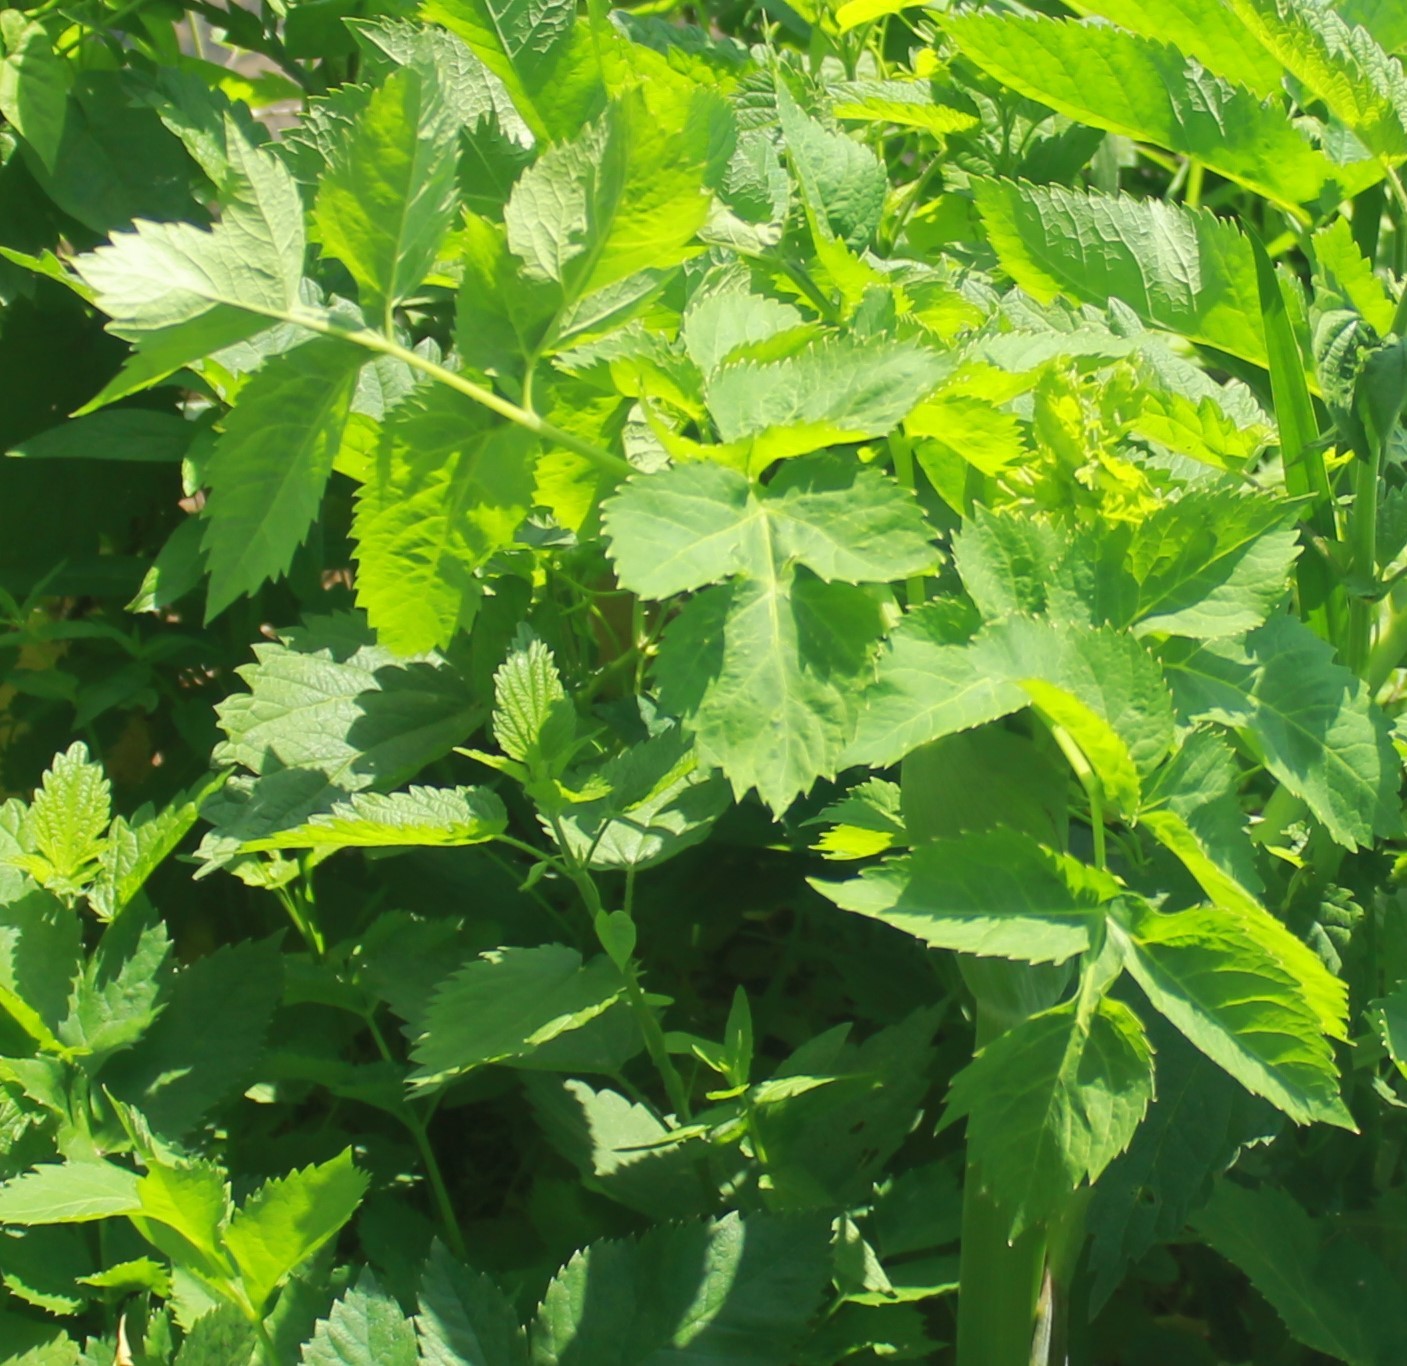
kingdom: Plantae
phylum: Tracheophyta
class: Magnoliopsida
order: Apiales
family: Apiaceae
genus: Pastinaca
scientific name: Pastinaca sativa
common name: Wild parsnip
